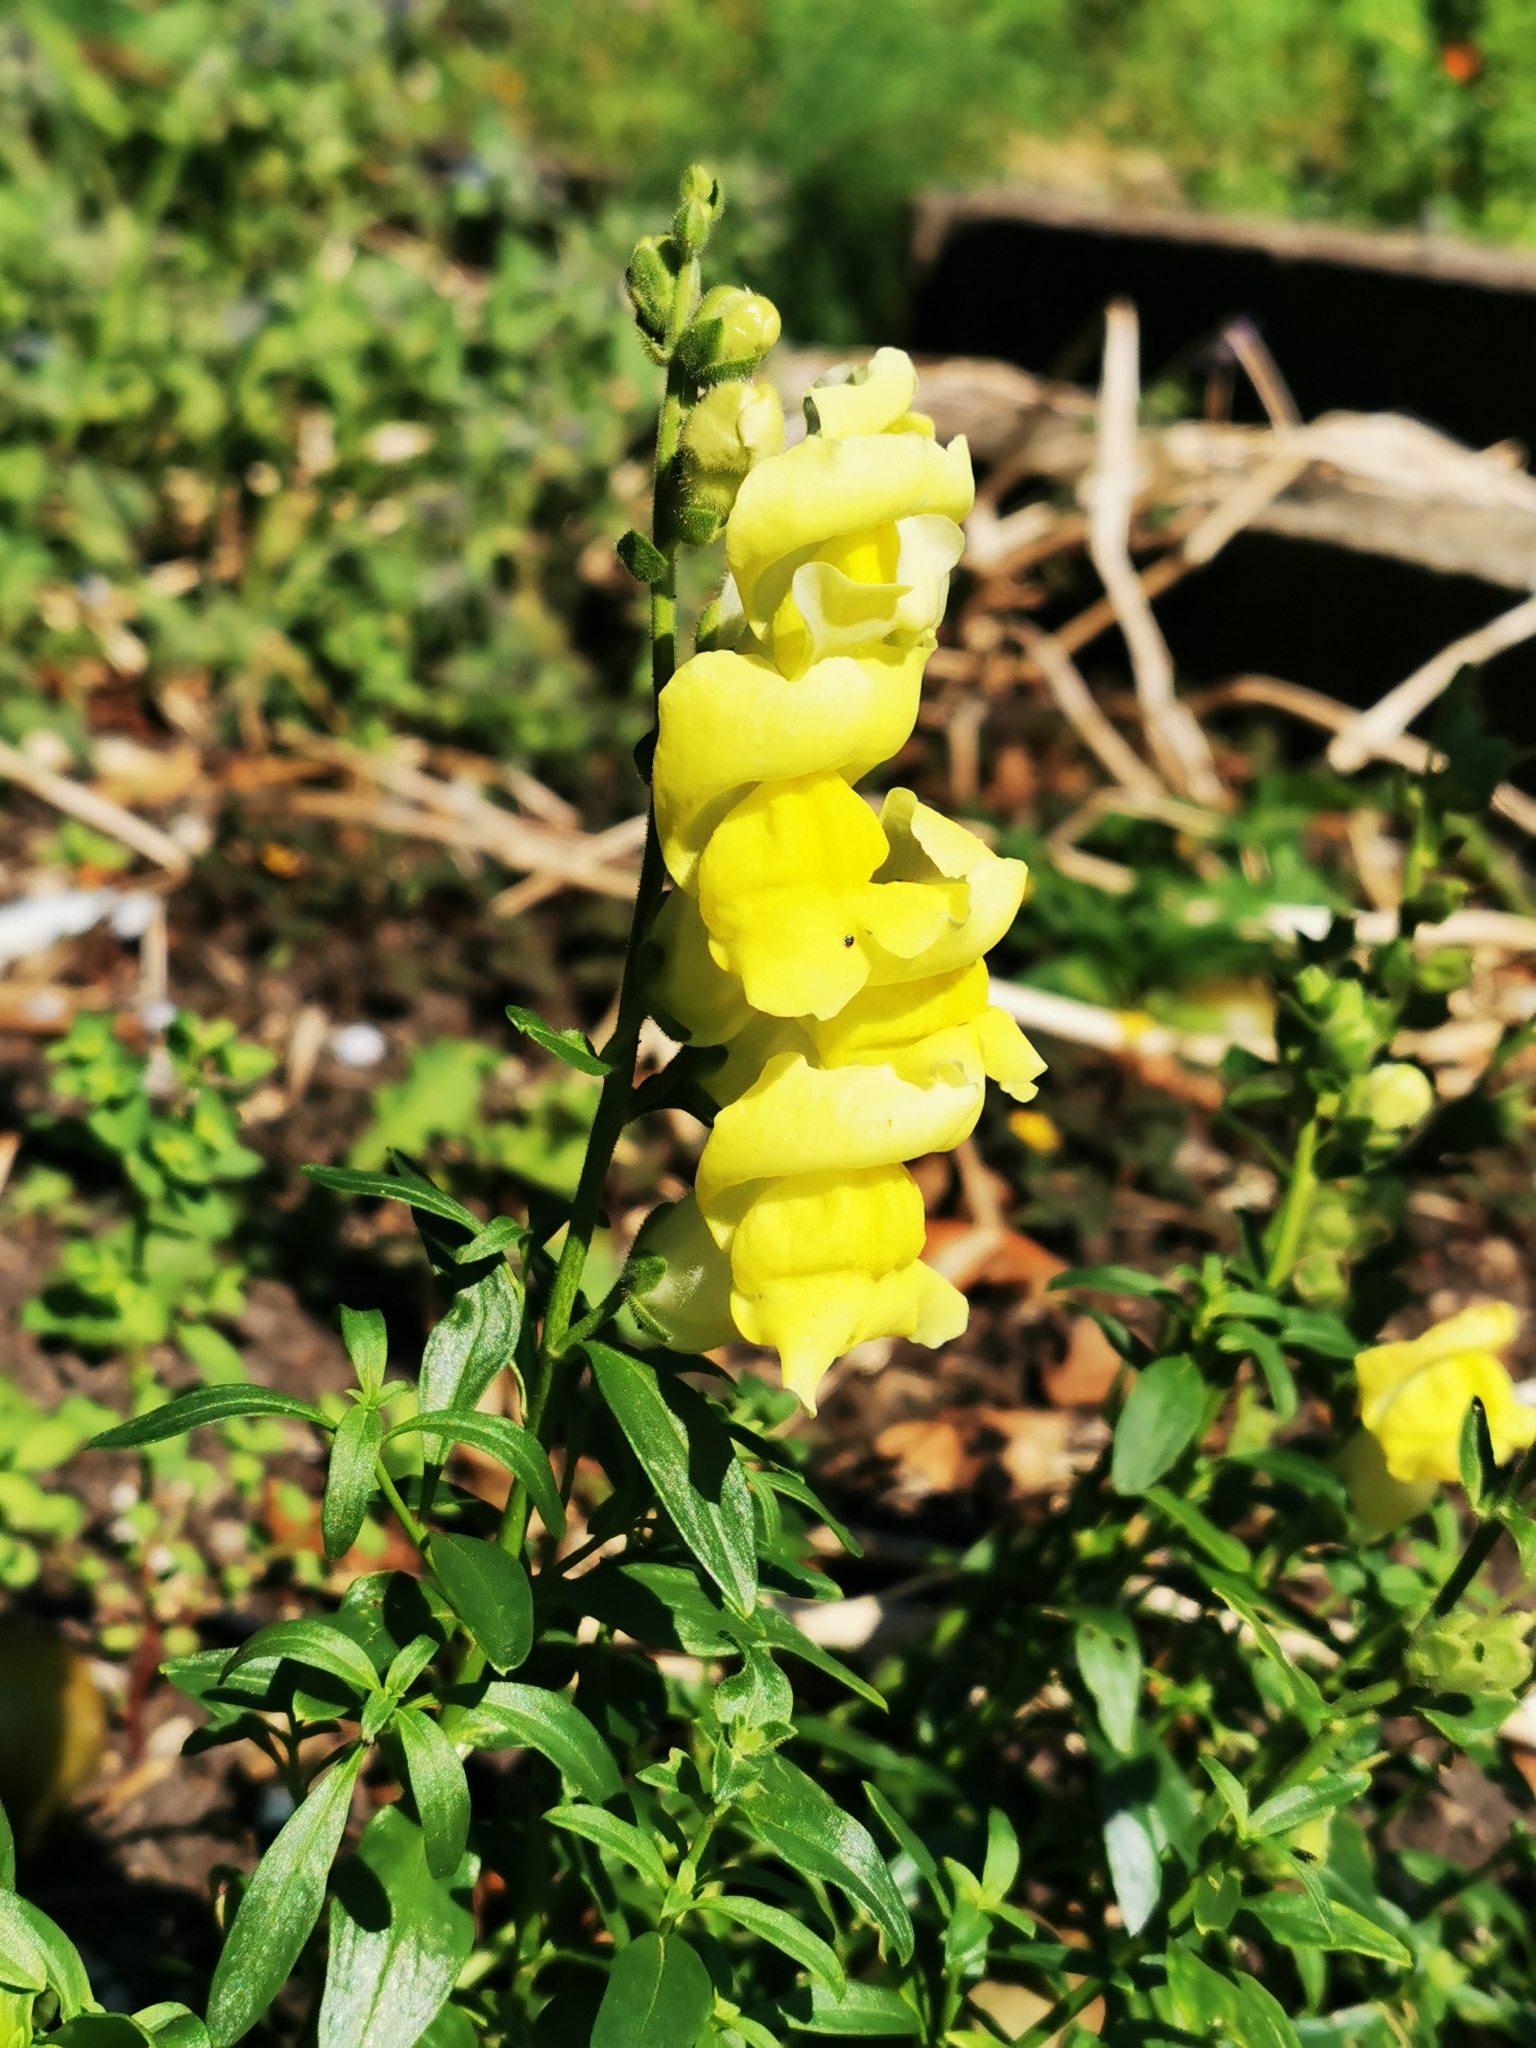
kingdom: Plantae
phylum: Tracheophyta
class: Magnoliopsida
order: Lamiales
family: Plantaginaceae
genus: Antirrhinum
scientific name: Antirrhinum majus
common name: Snapdragon
